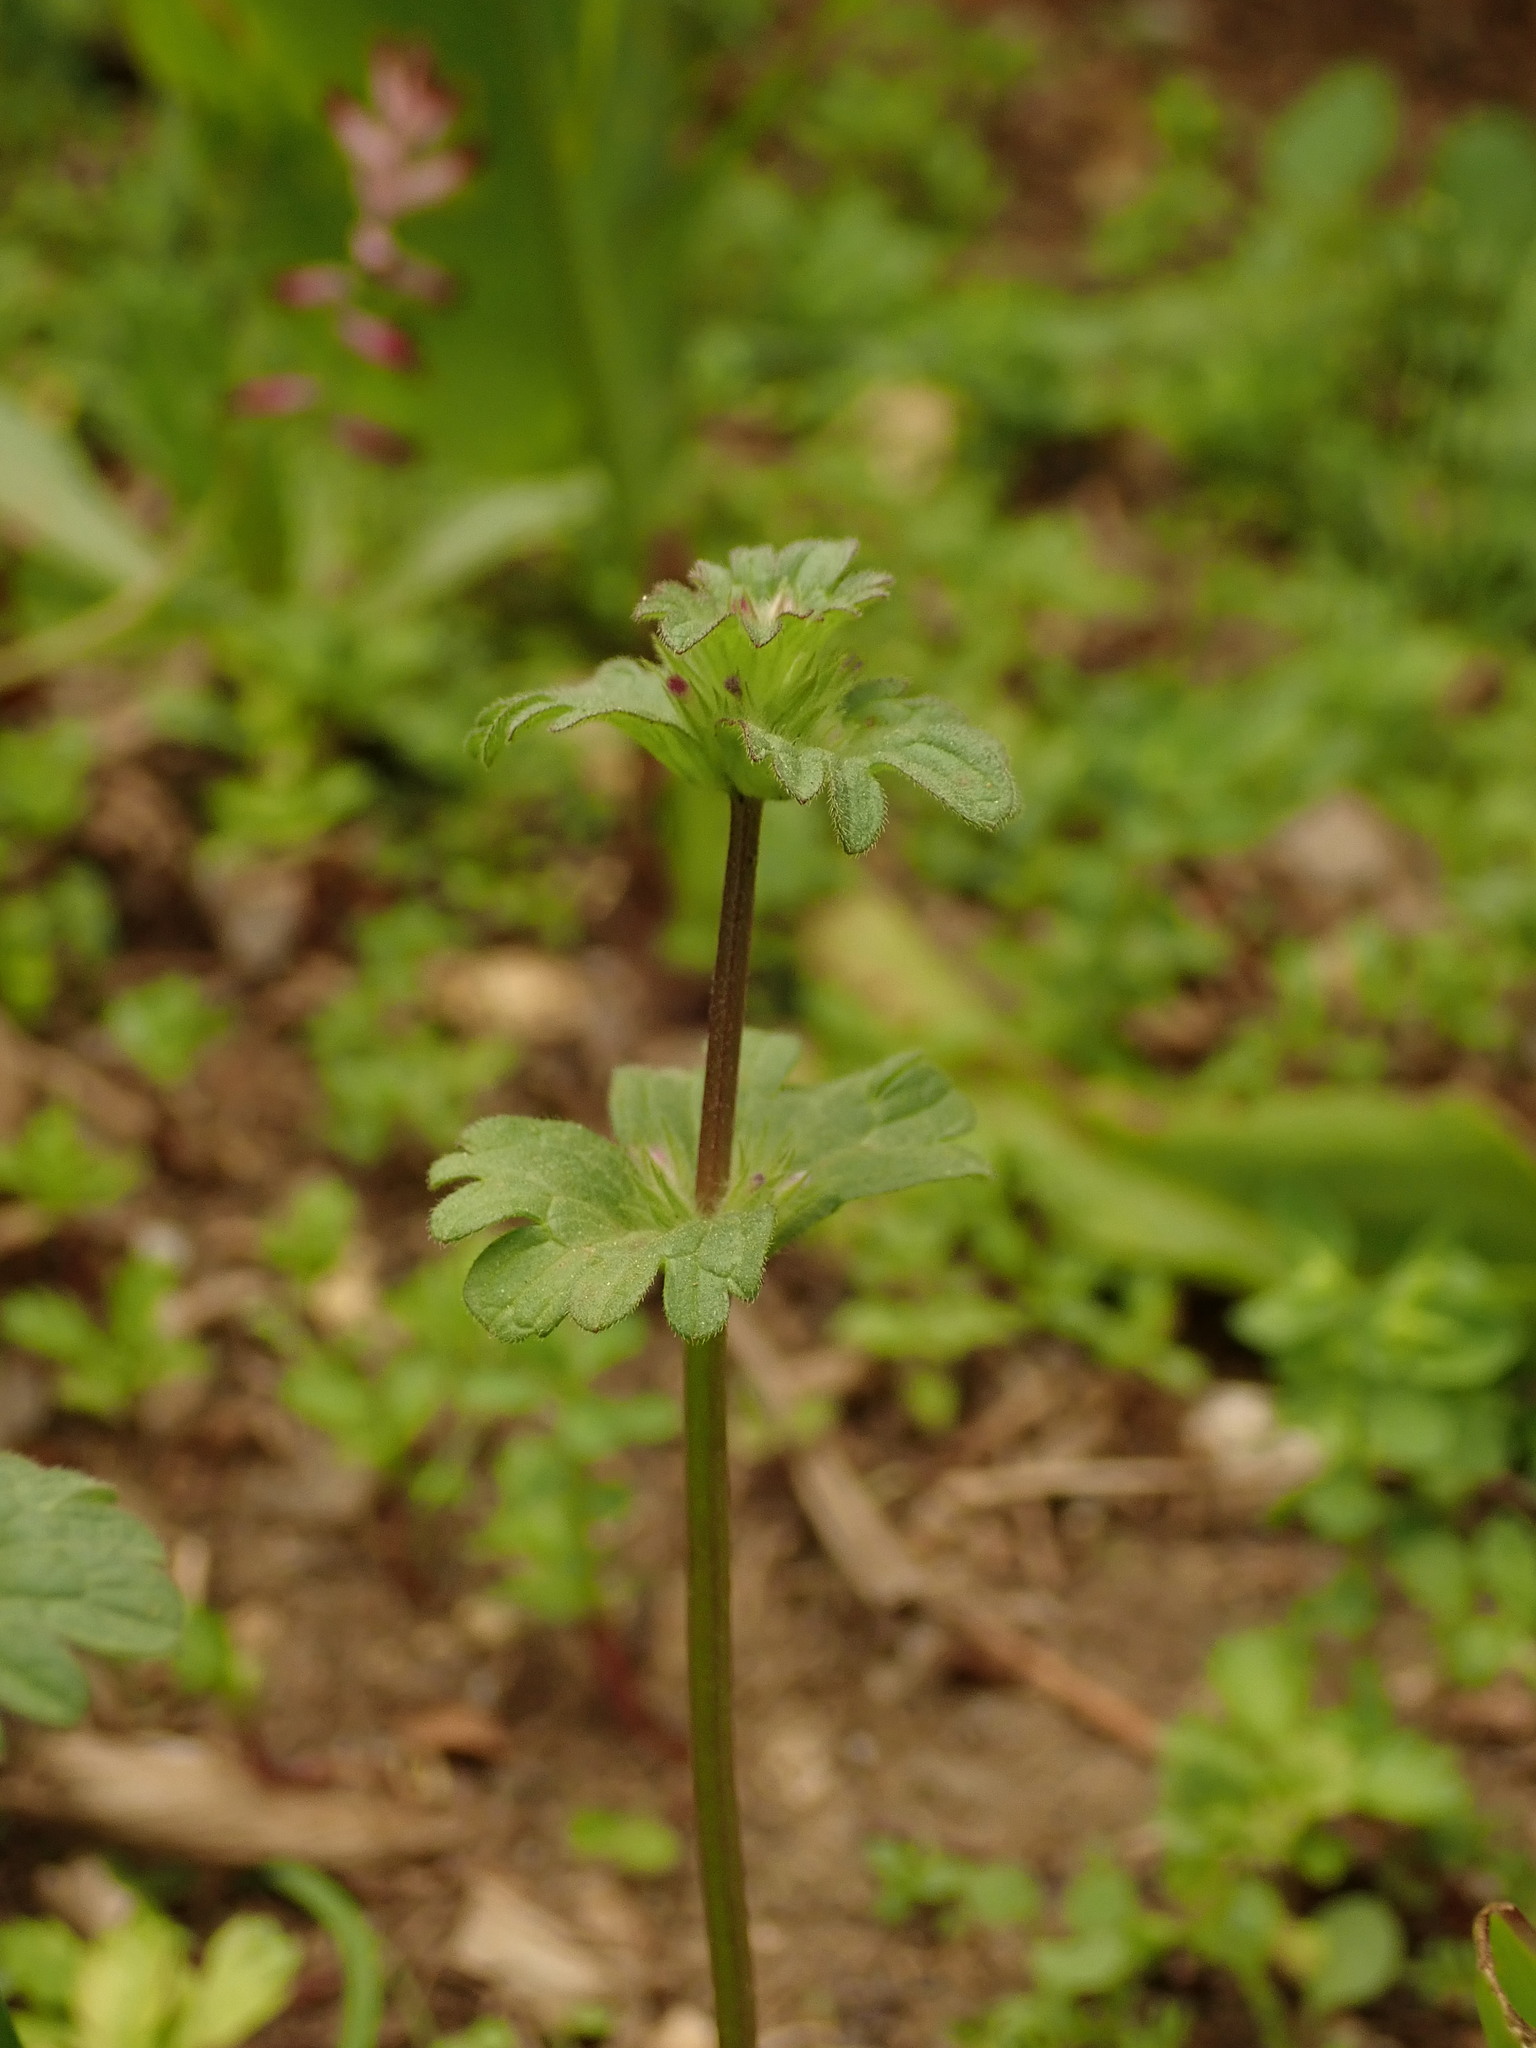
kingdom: Plantae
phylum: Tracheophyta
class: Magnoliopsida
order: Lamiales
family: Lamiaceae
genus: Lamium
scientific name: Lamium amplexicaule
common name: Henbit dead-nettle
